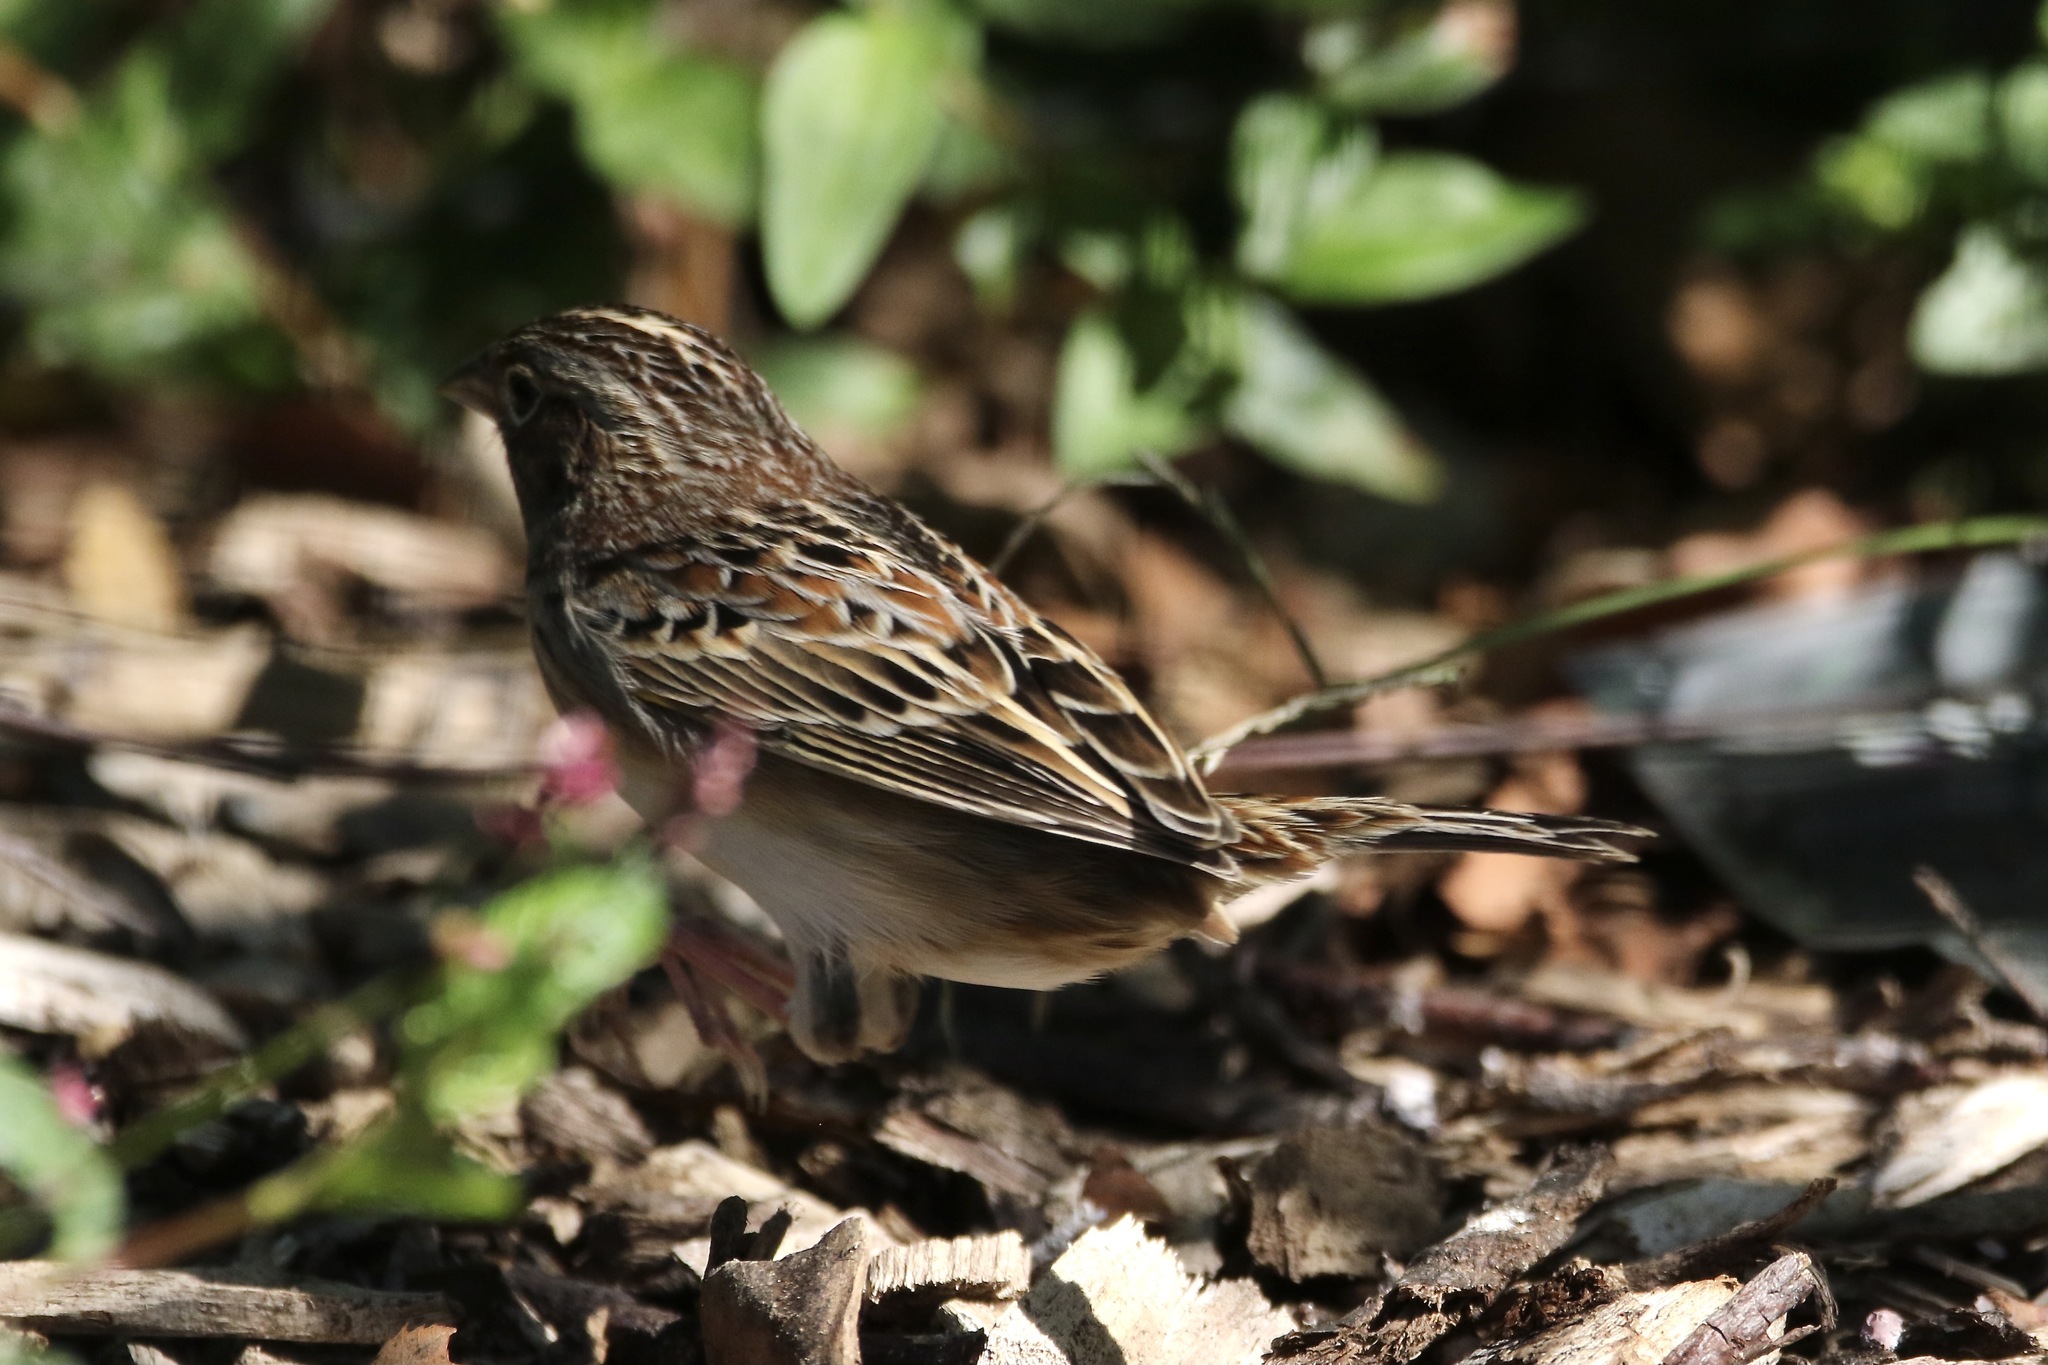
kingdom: Animalia
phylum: Chordata
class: Aves
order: Passeriformes
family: Passerellidae
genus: Ammodramus
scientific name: Ammodramus savannarum
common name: Grasshopper sparrow
